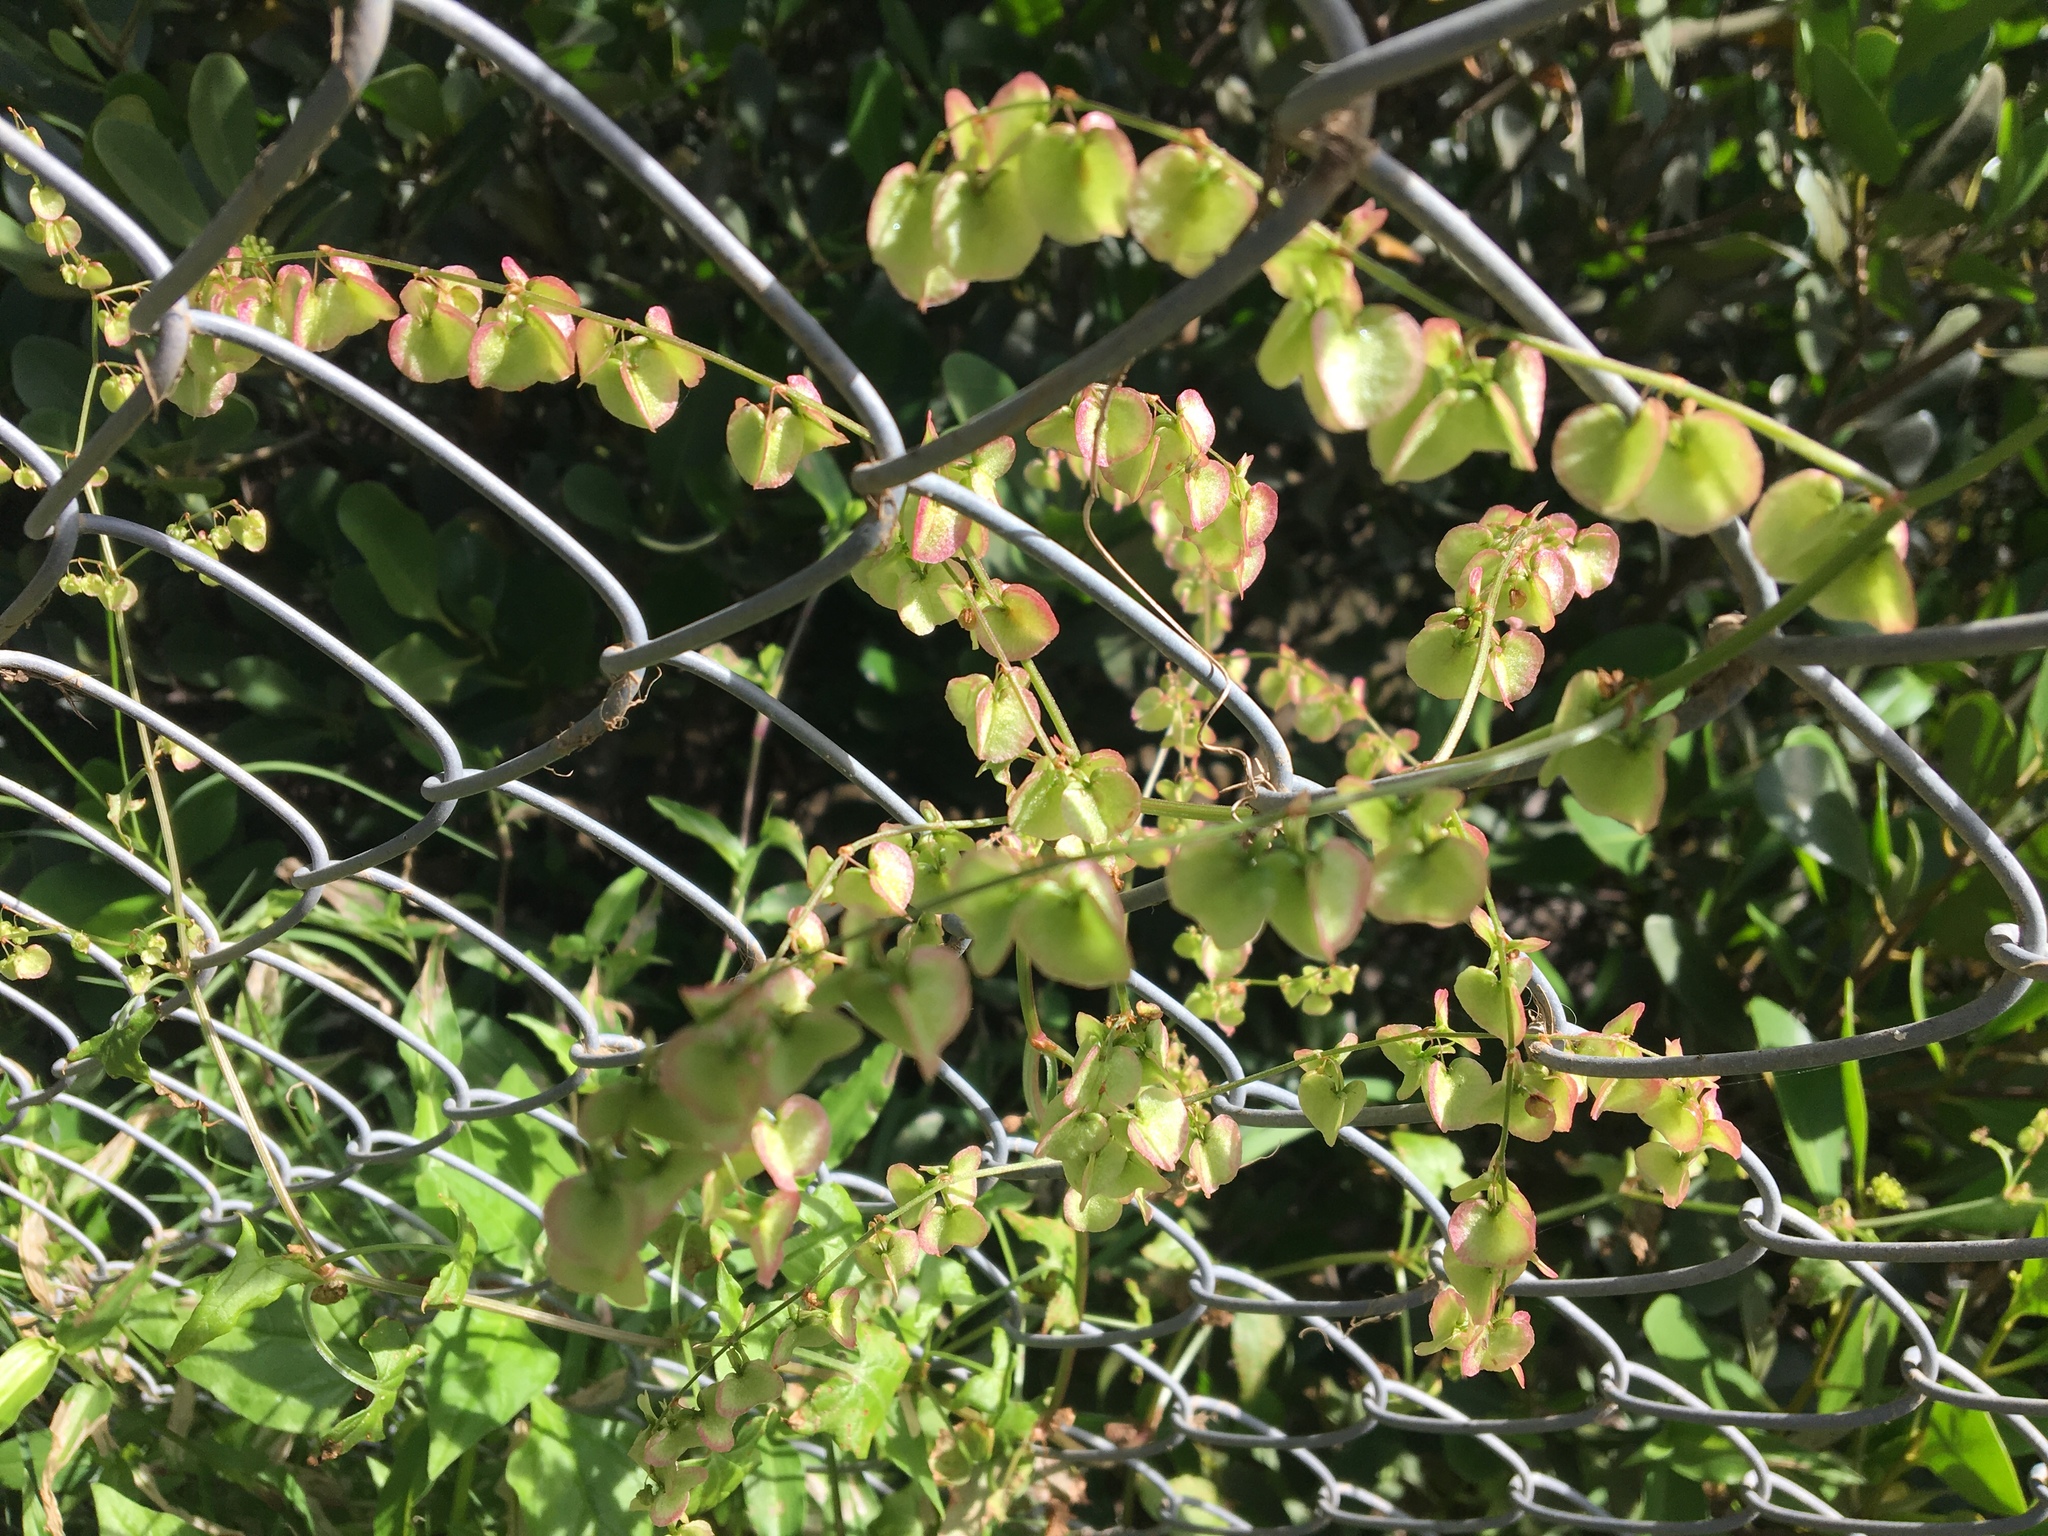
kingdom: Plantae
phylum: Tracheophyta
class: Magnoliopsida
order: Caryophyllales
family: Polygonaceae
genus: Rumex
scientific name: Rumex sagittatus
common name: Climbing dock
